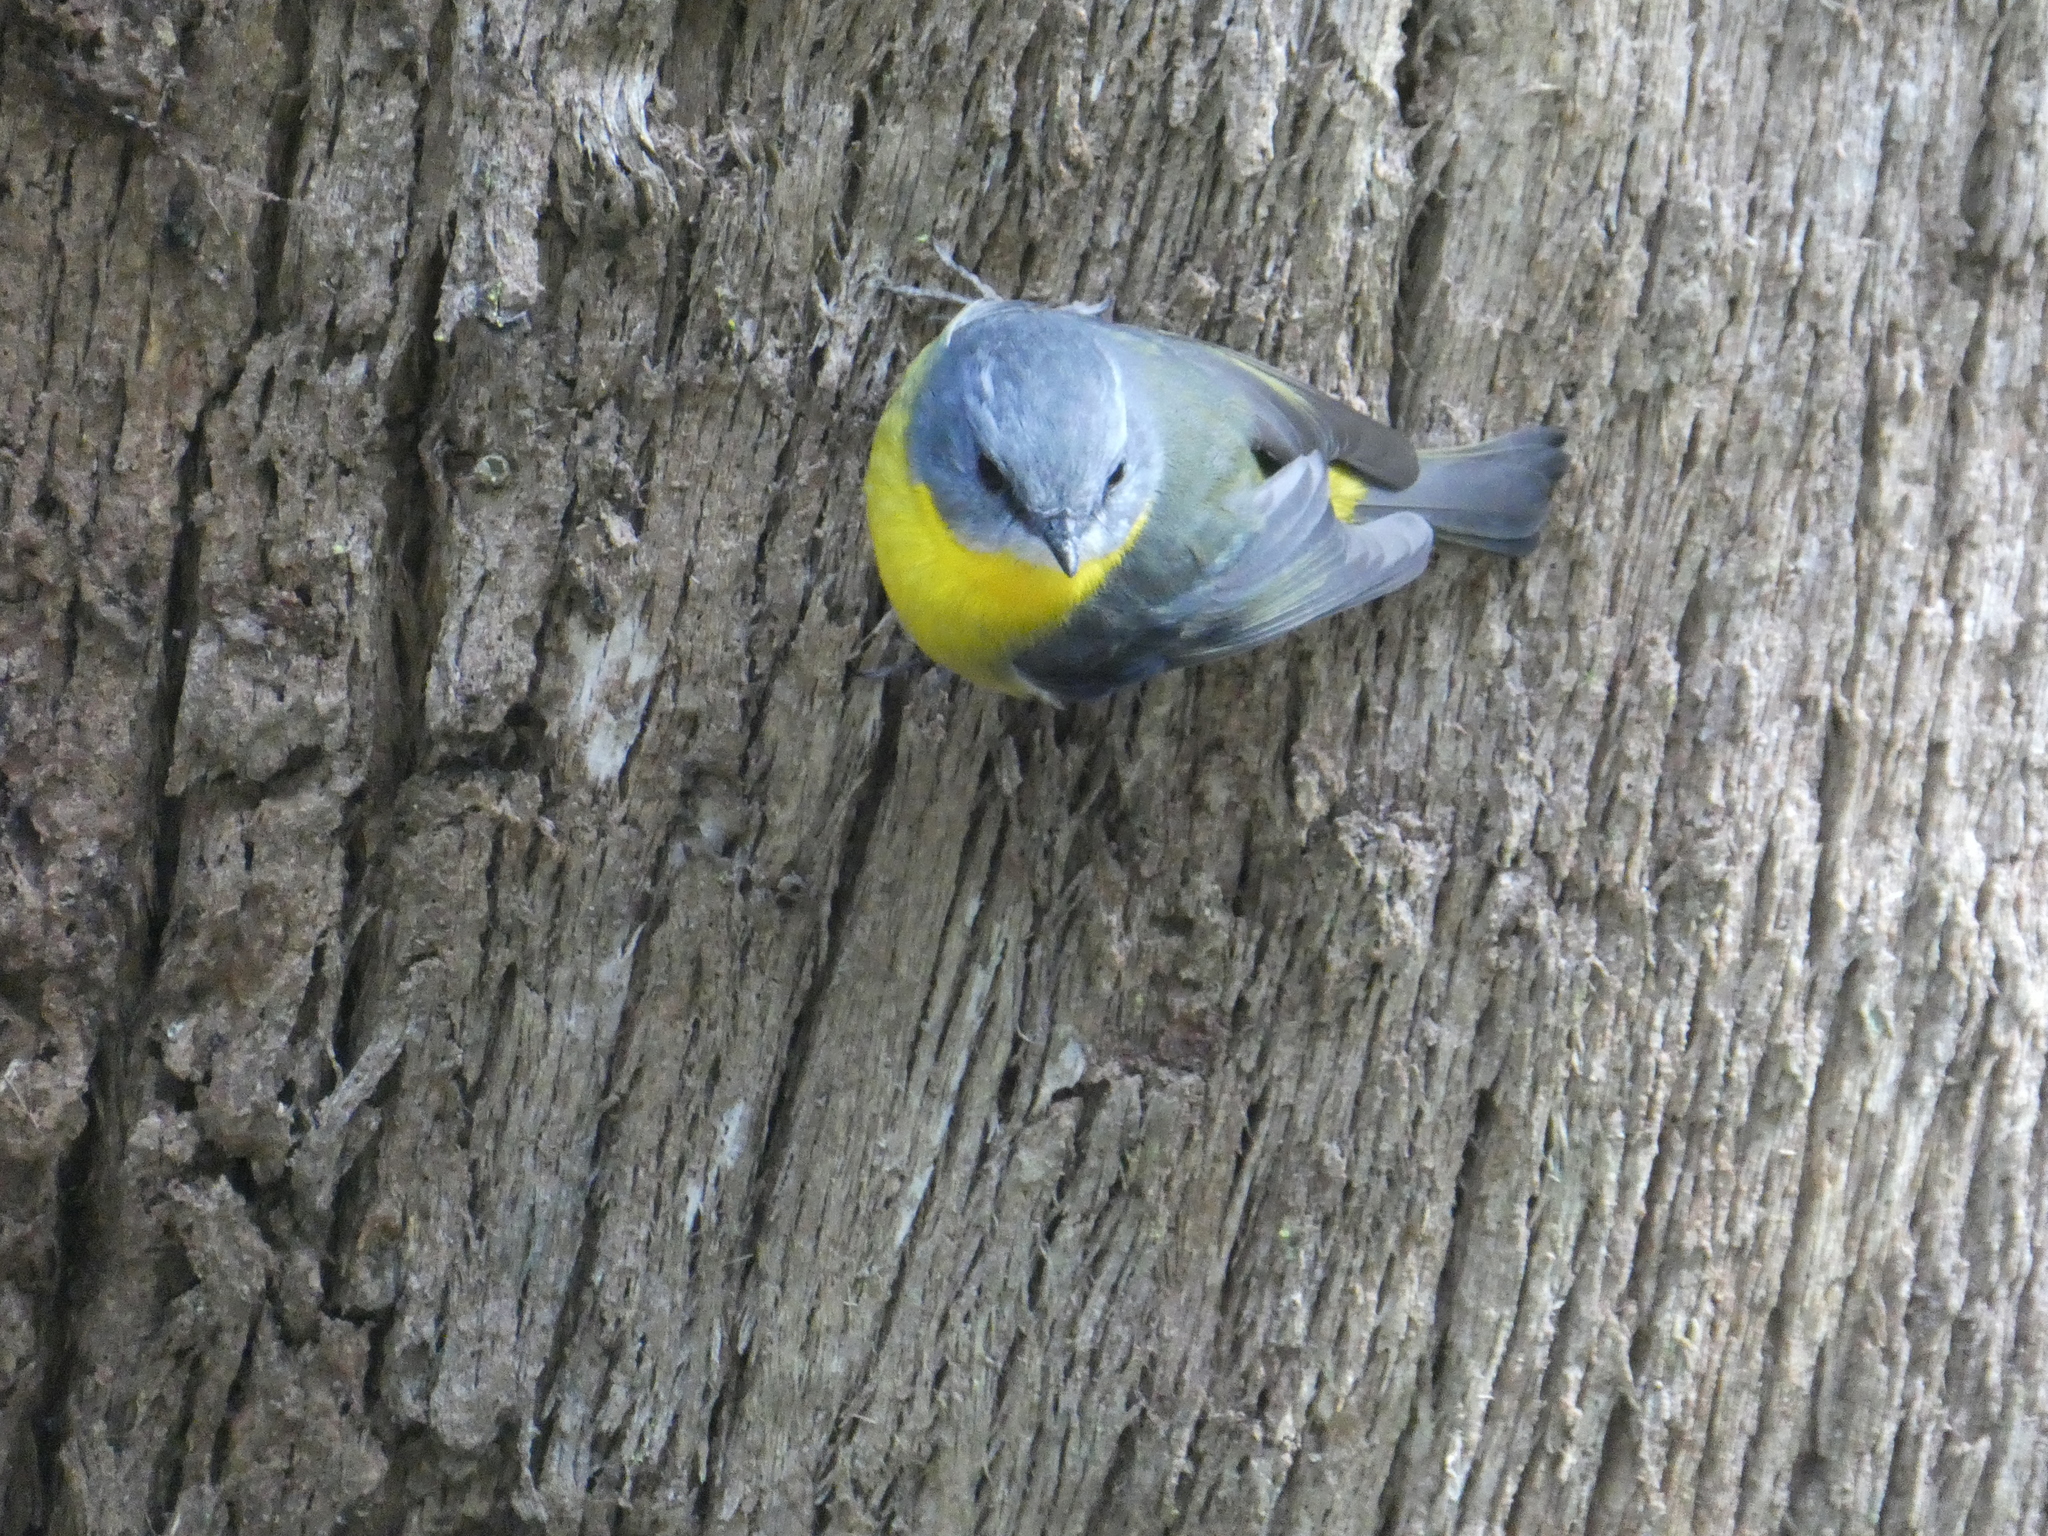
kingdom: Animalia
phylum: Chordata
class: Aves
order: Passeriformes
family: Petroicidae
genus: Eopsaltria
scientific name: Eopsaltria australis
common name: Eastern yellow robin
